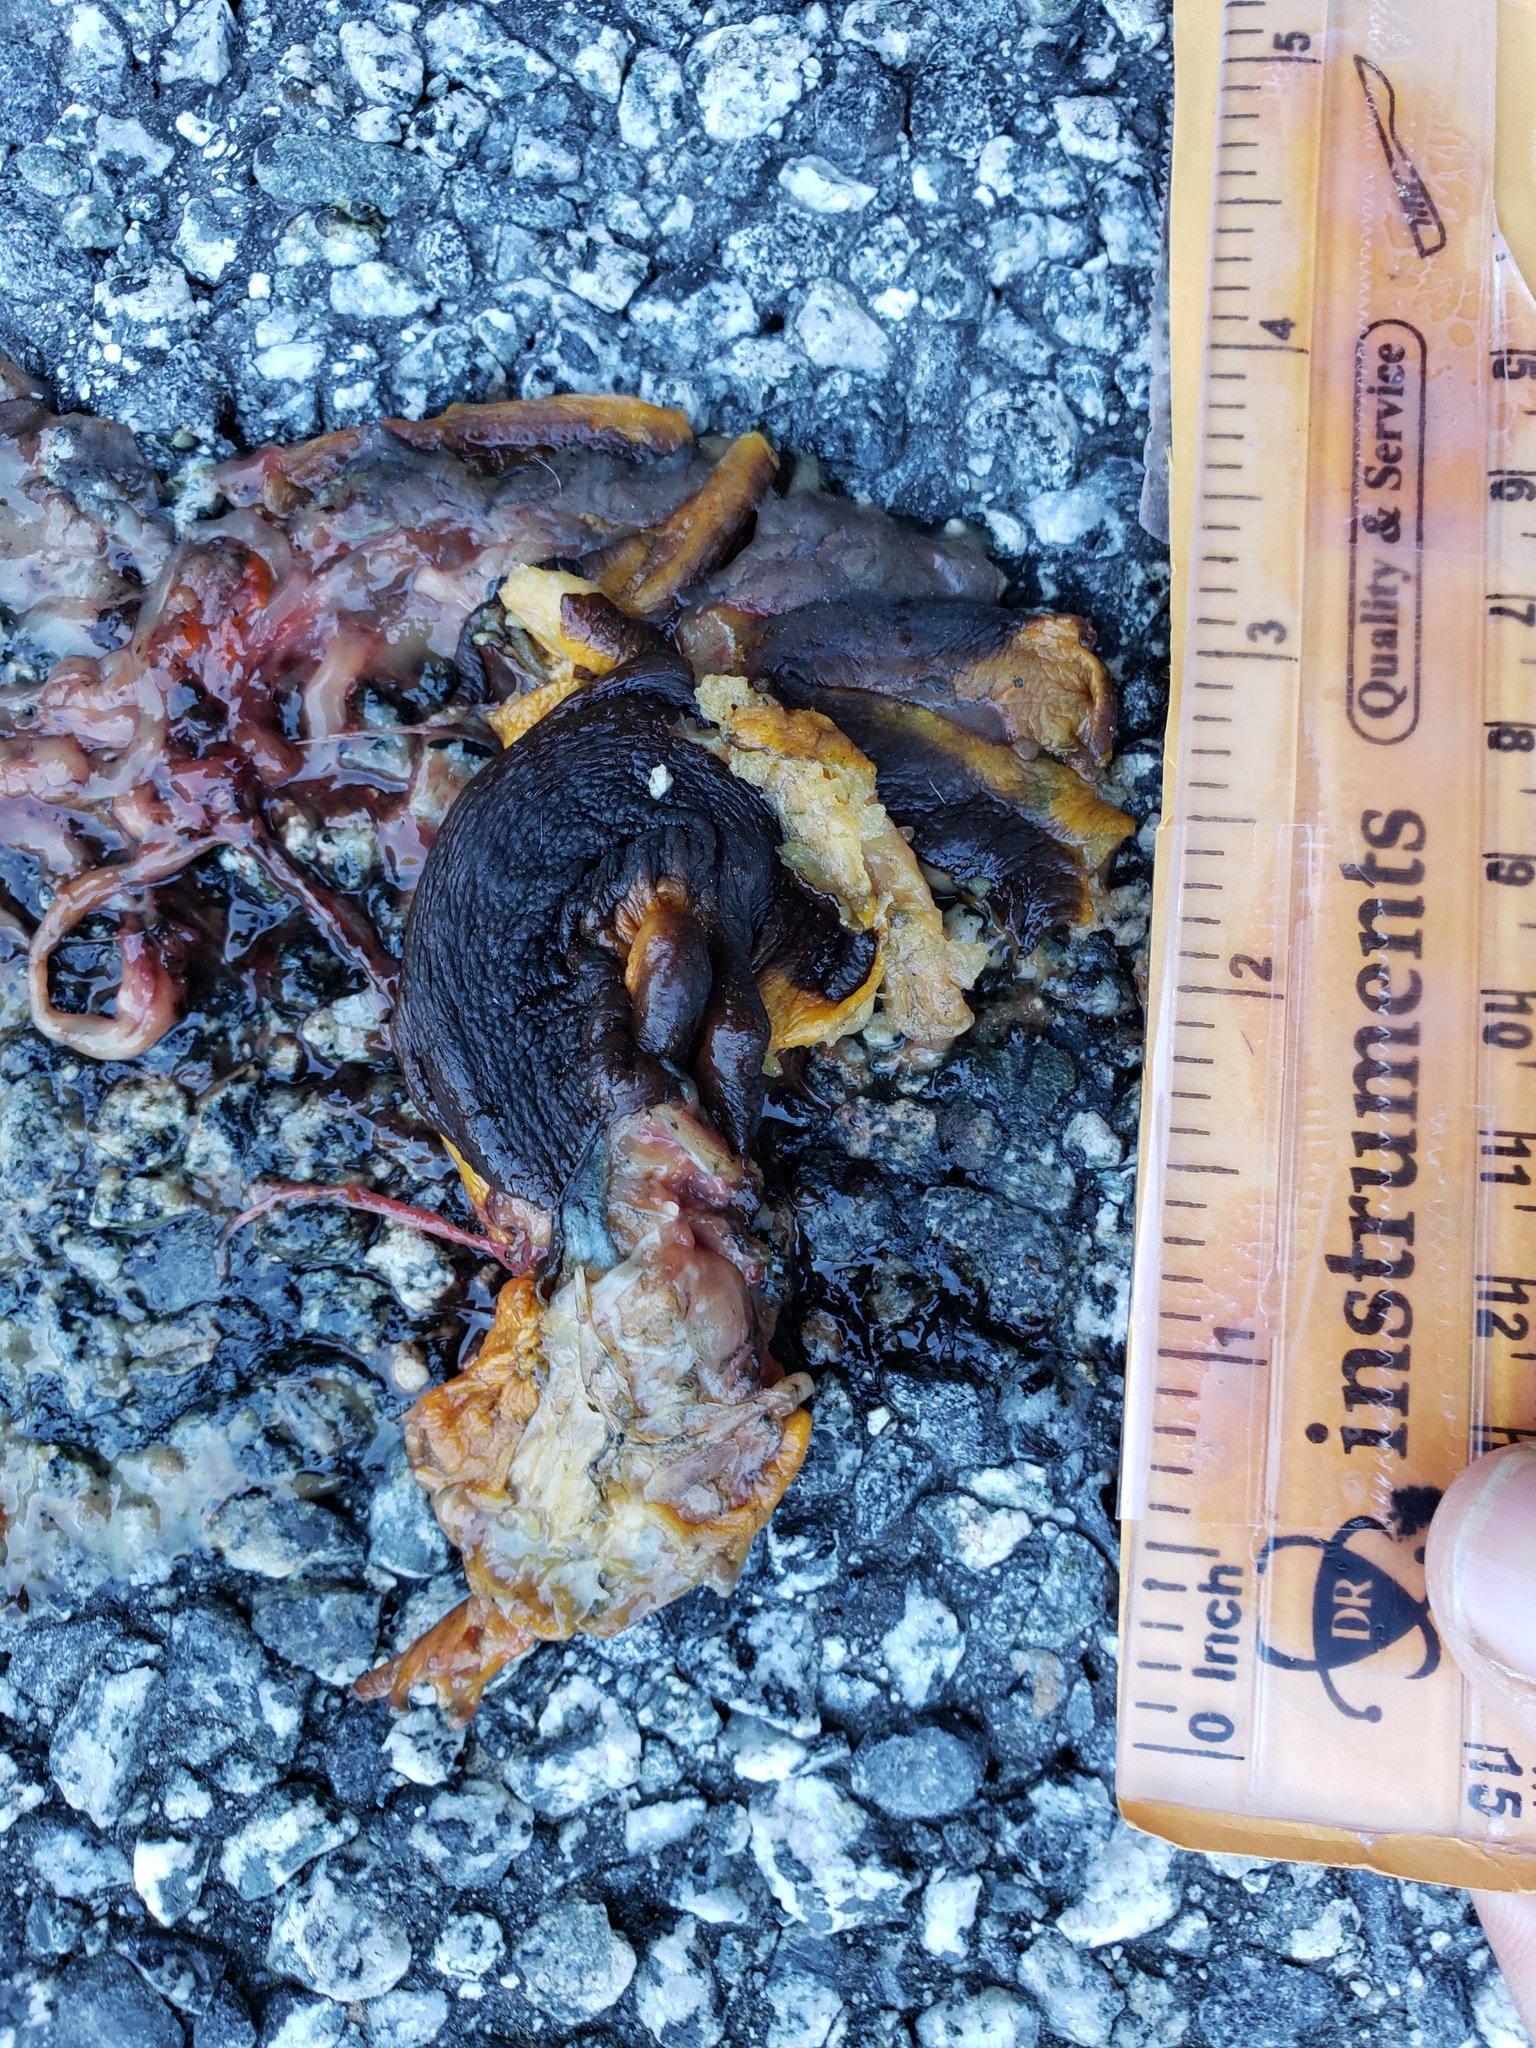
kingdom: Animalia
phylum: Chordata
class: Amphibia
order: Caudata
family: Salamandridae
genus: Taricha
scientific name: Taricha
